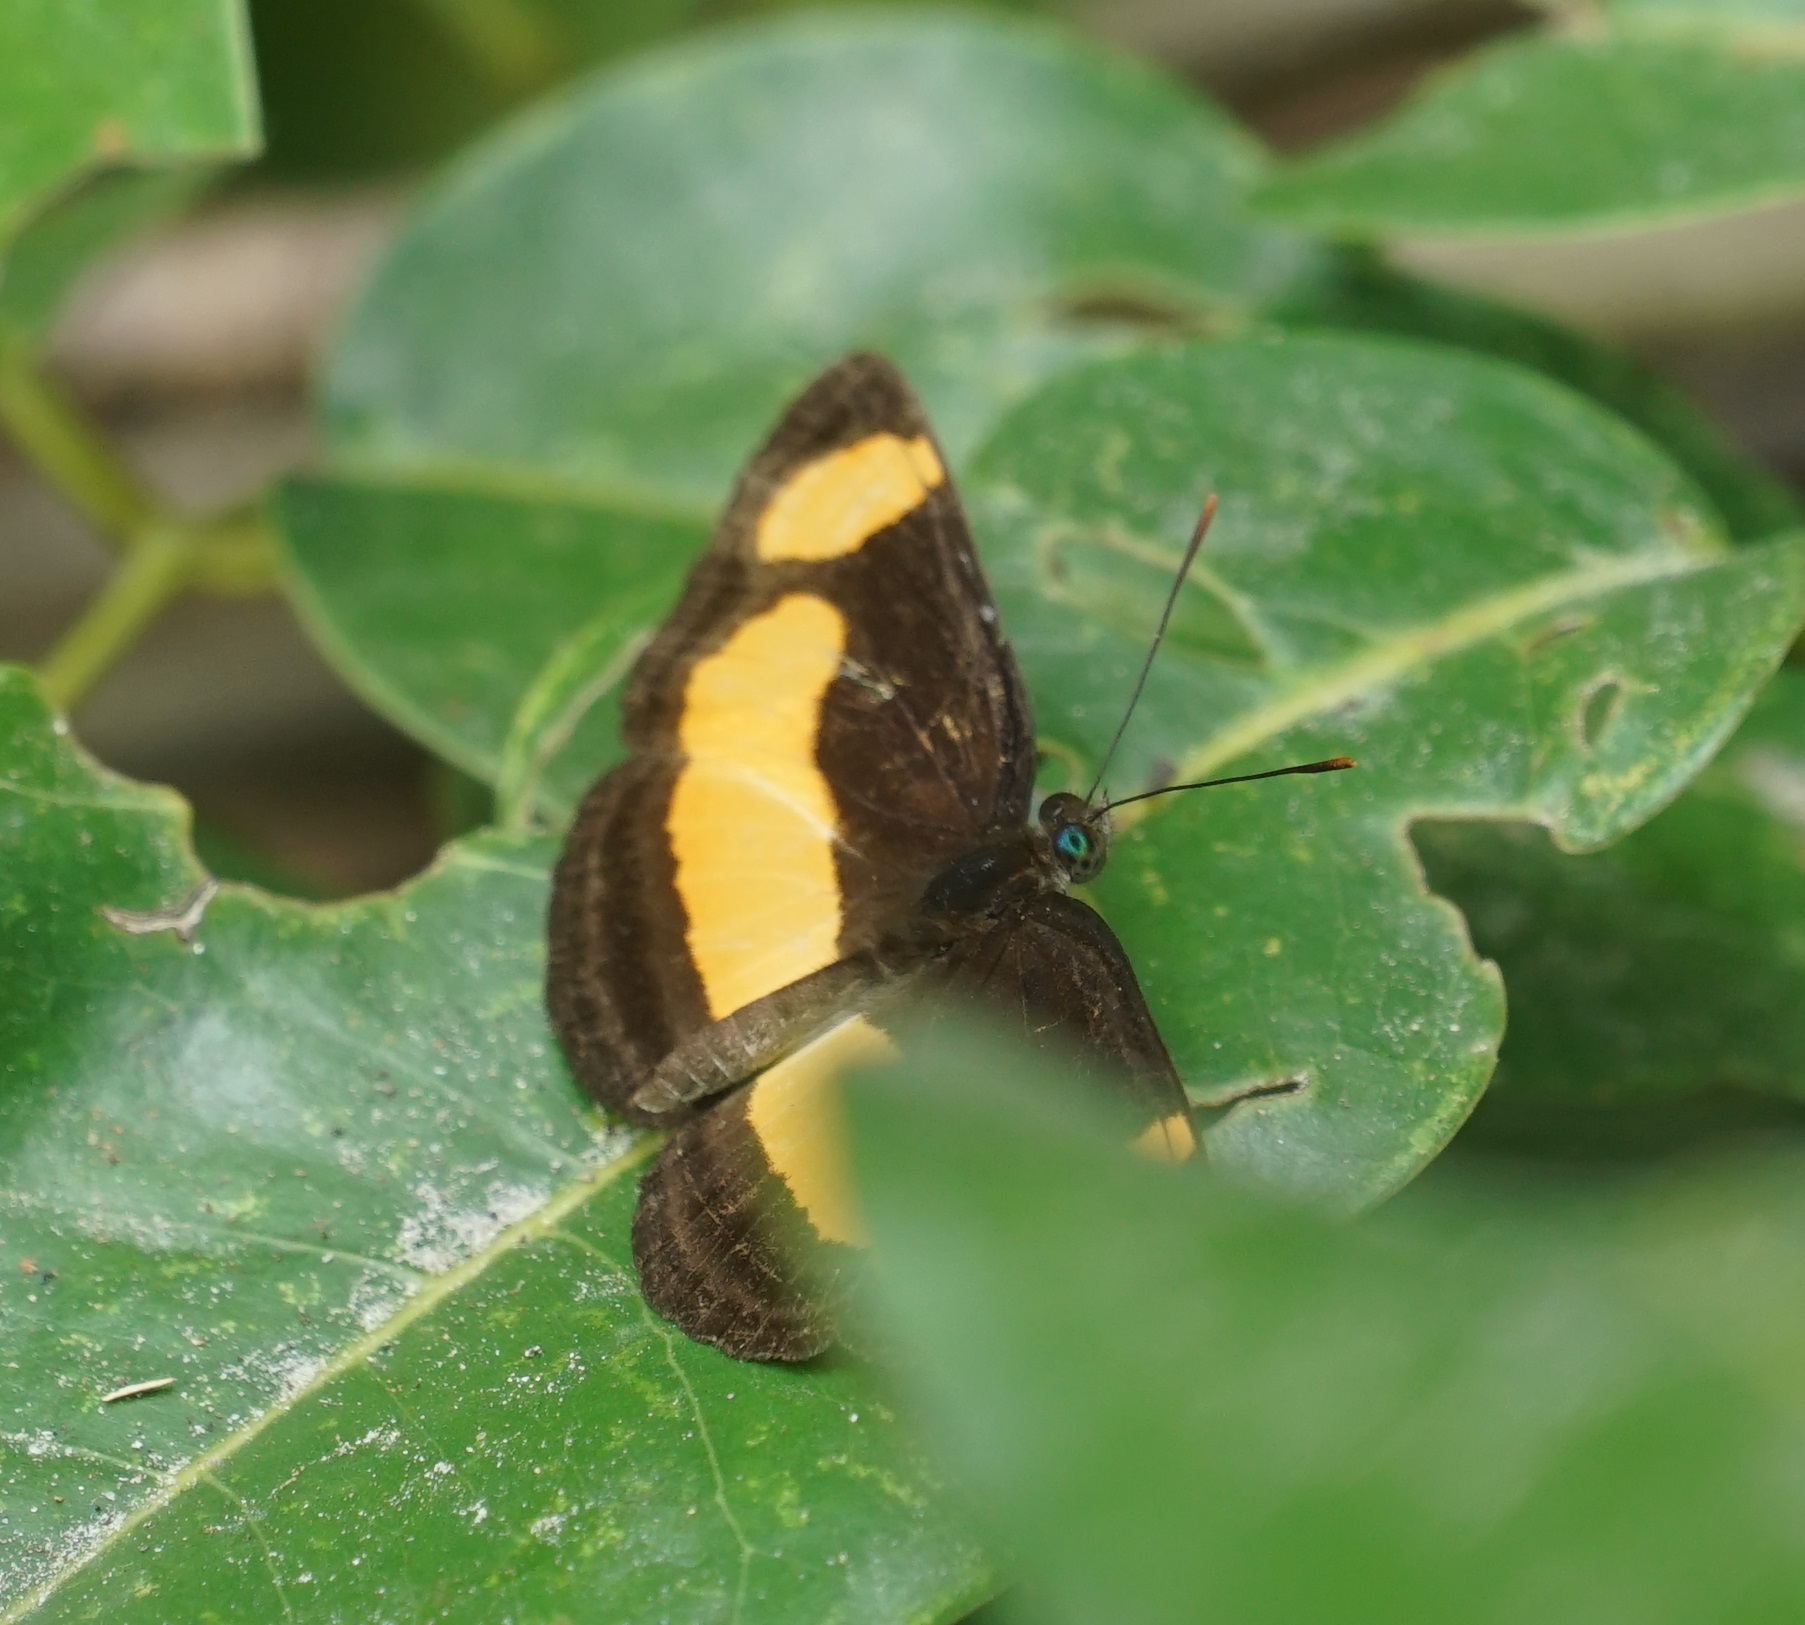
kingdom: Animalia
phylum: Arthropoda
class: Insecta
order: Lepidoptera
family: Nymphalidae
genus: Pantoporia
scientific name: Pantoporia consimilis
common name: Orange plane
